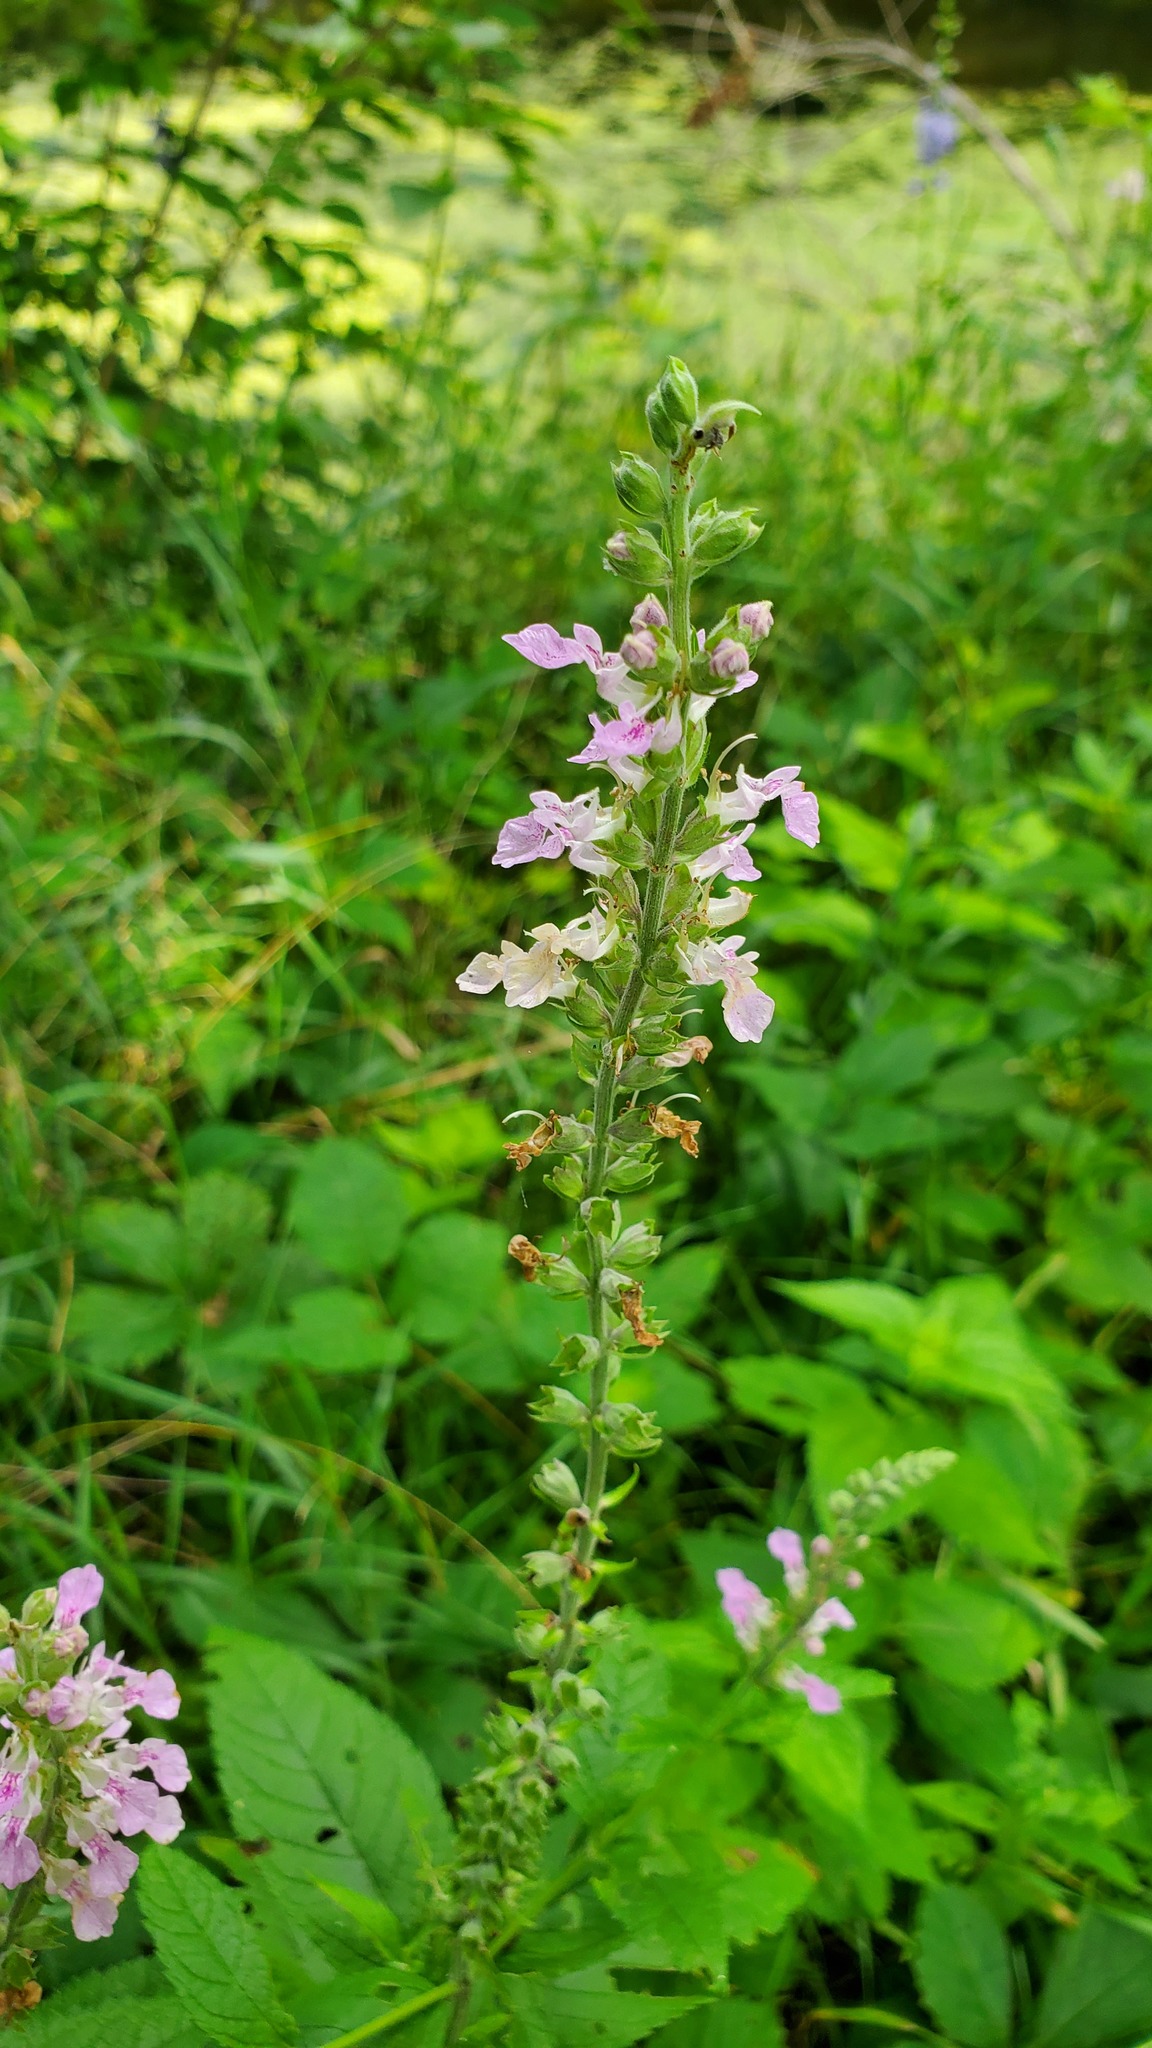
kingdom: Plantae
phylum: Tracheophyta
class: Magnoliopsida
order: Lamiales
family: Lamiaceae
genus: Teucrium
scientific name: Teucrium canadense
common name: American germander
